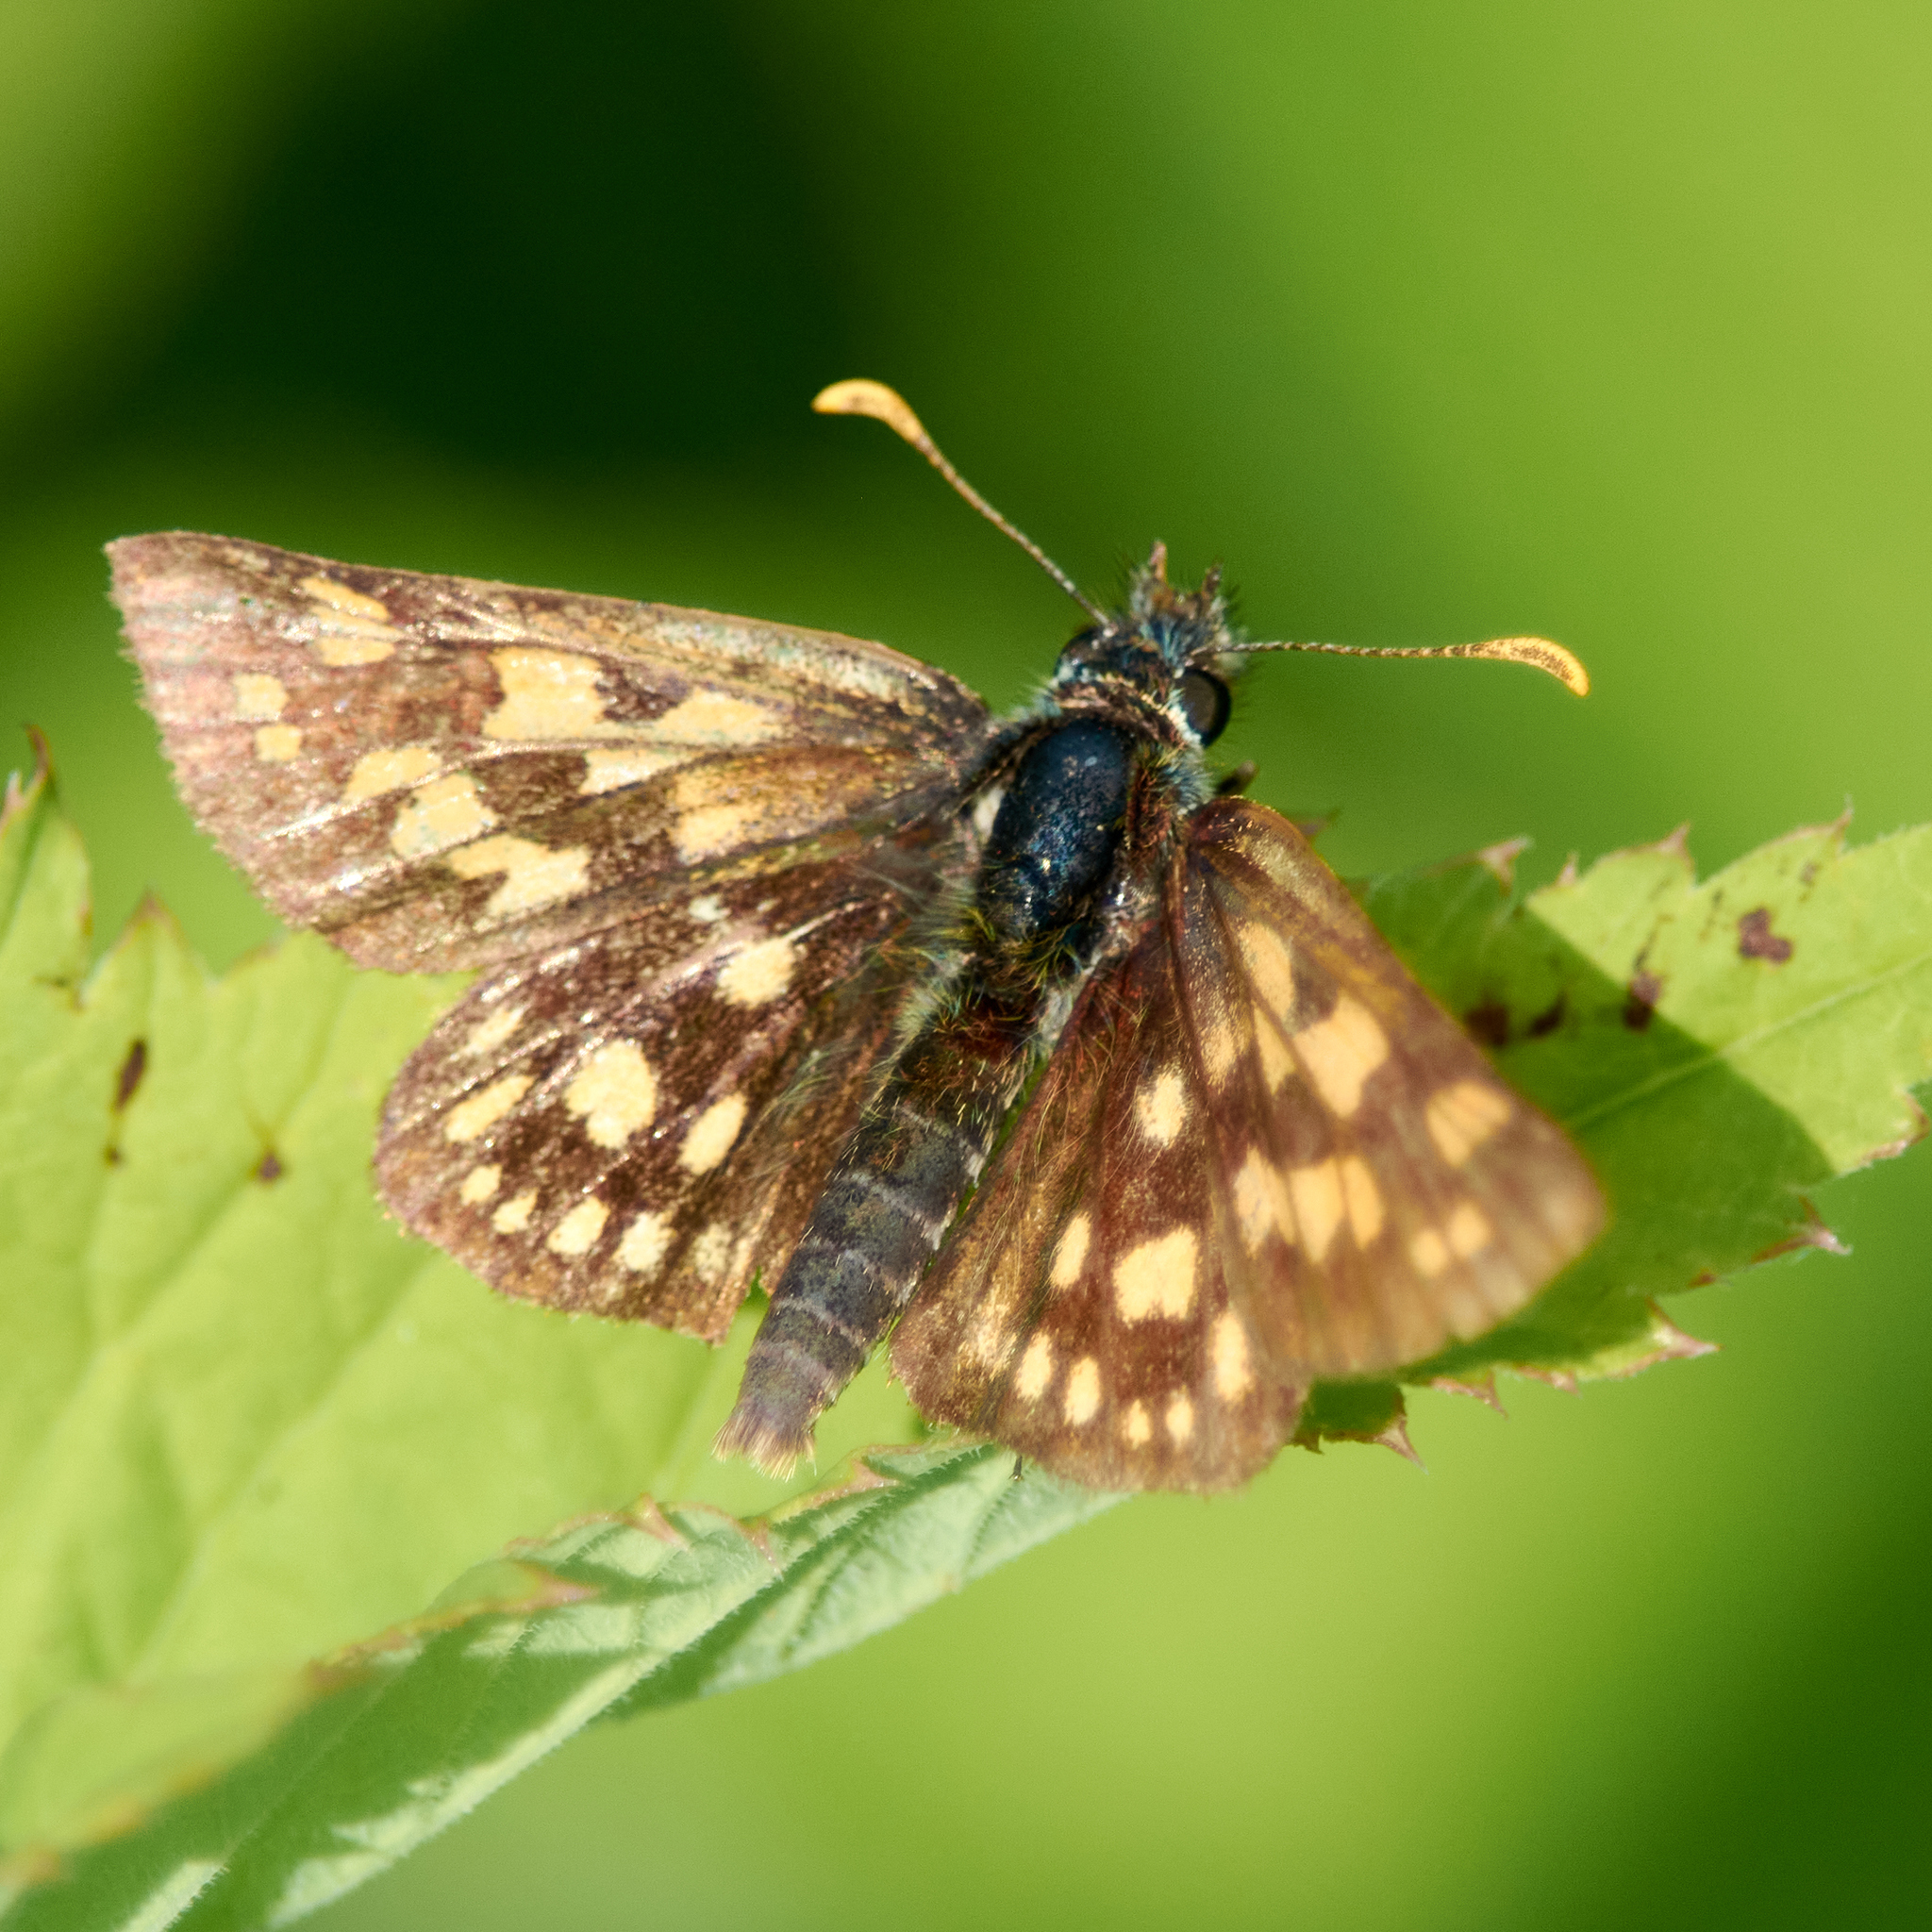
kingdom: Animalia
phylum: Arthropoda
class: Insecta
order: Lepidoptera
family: Hesperiidae
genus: Carterocephalus
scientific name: Carterocephalus palaemon
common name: Chequered skipper
